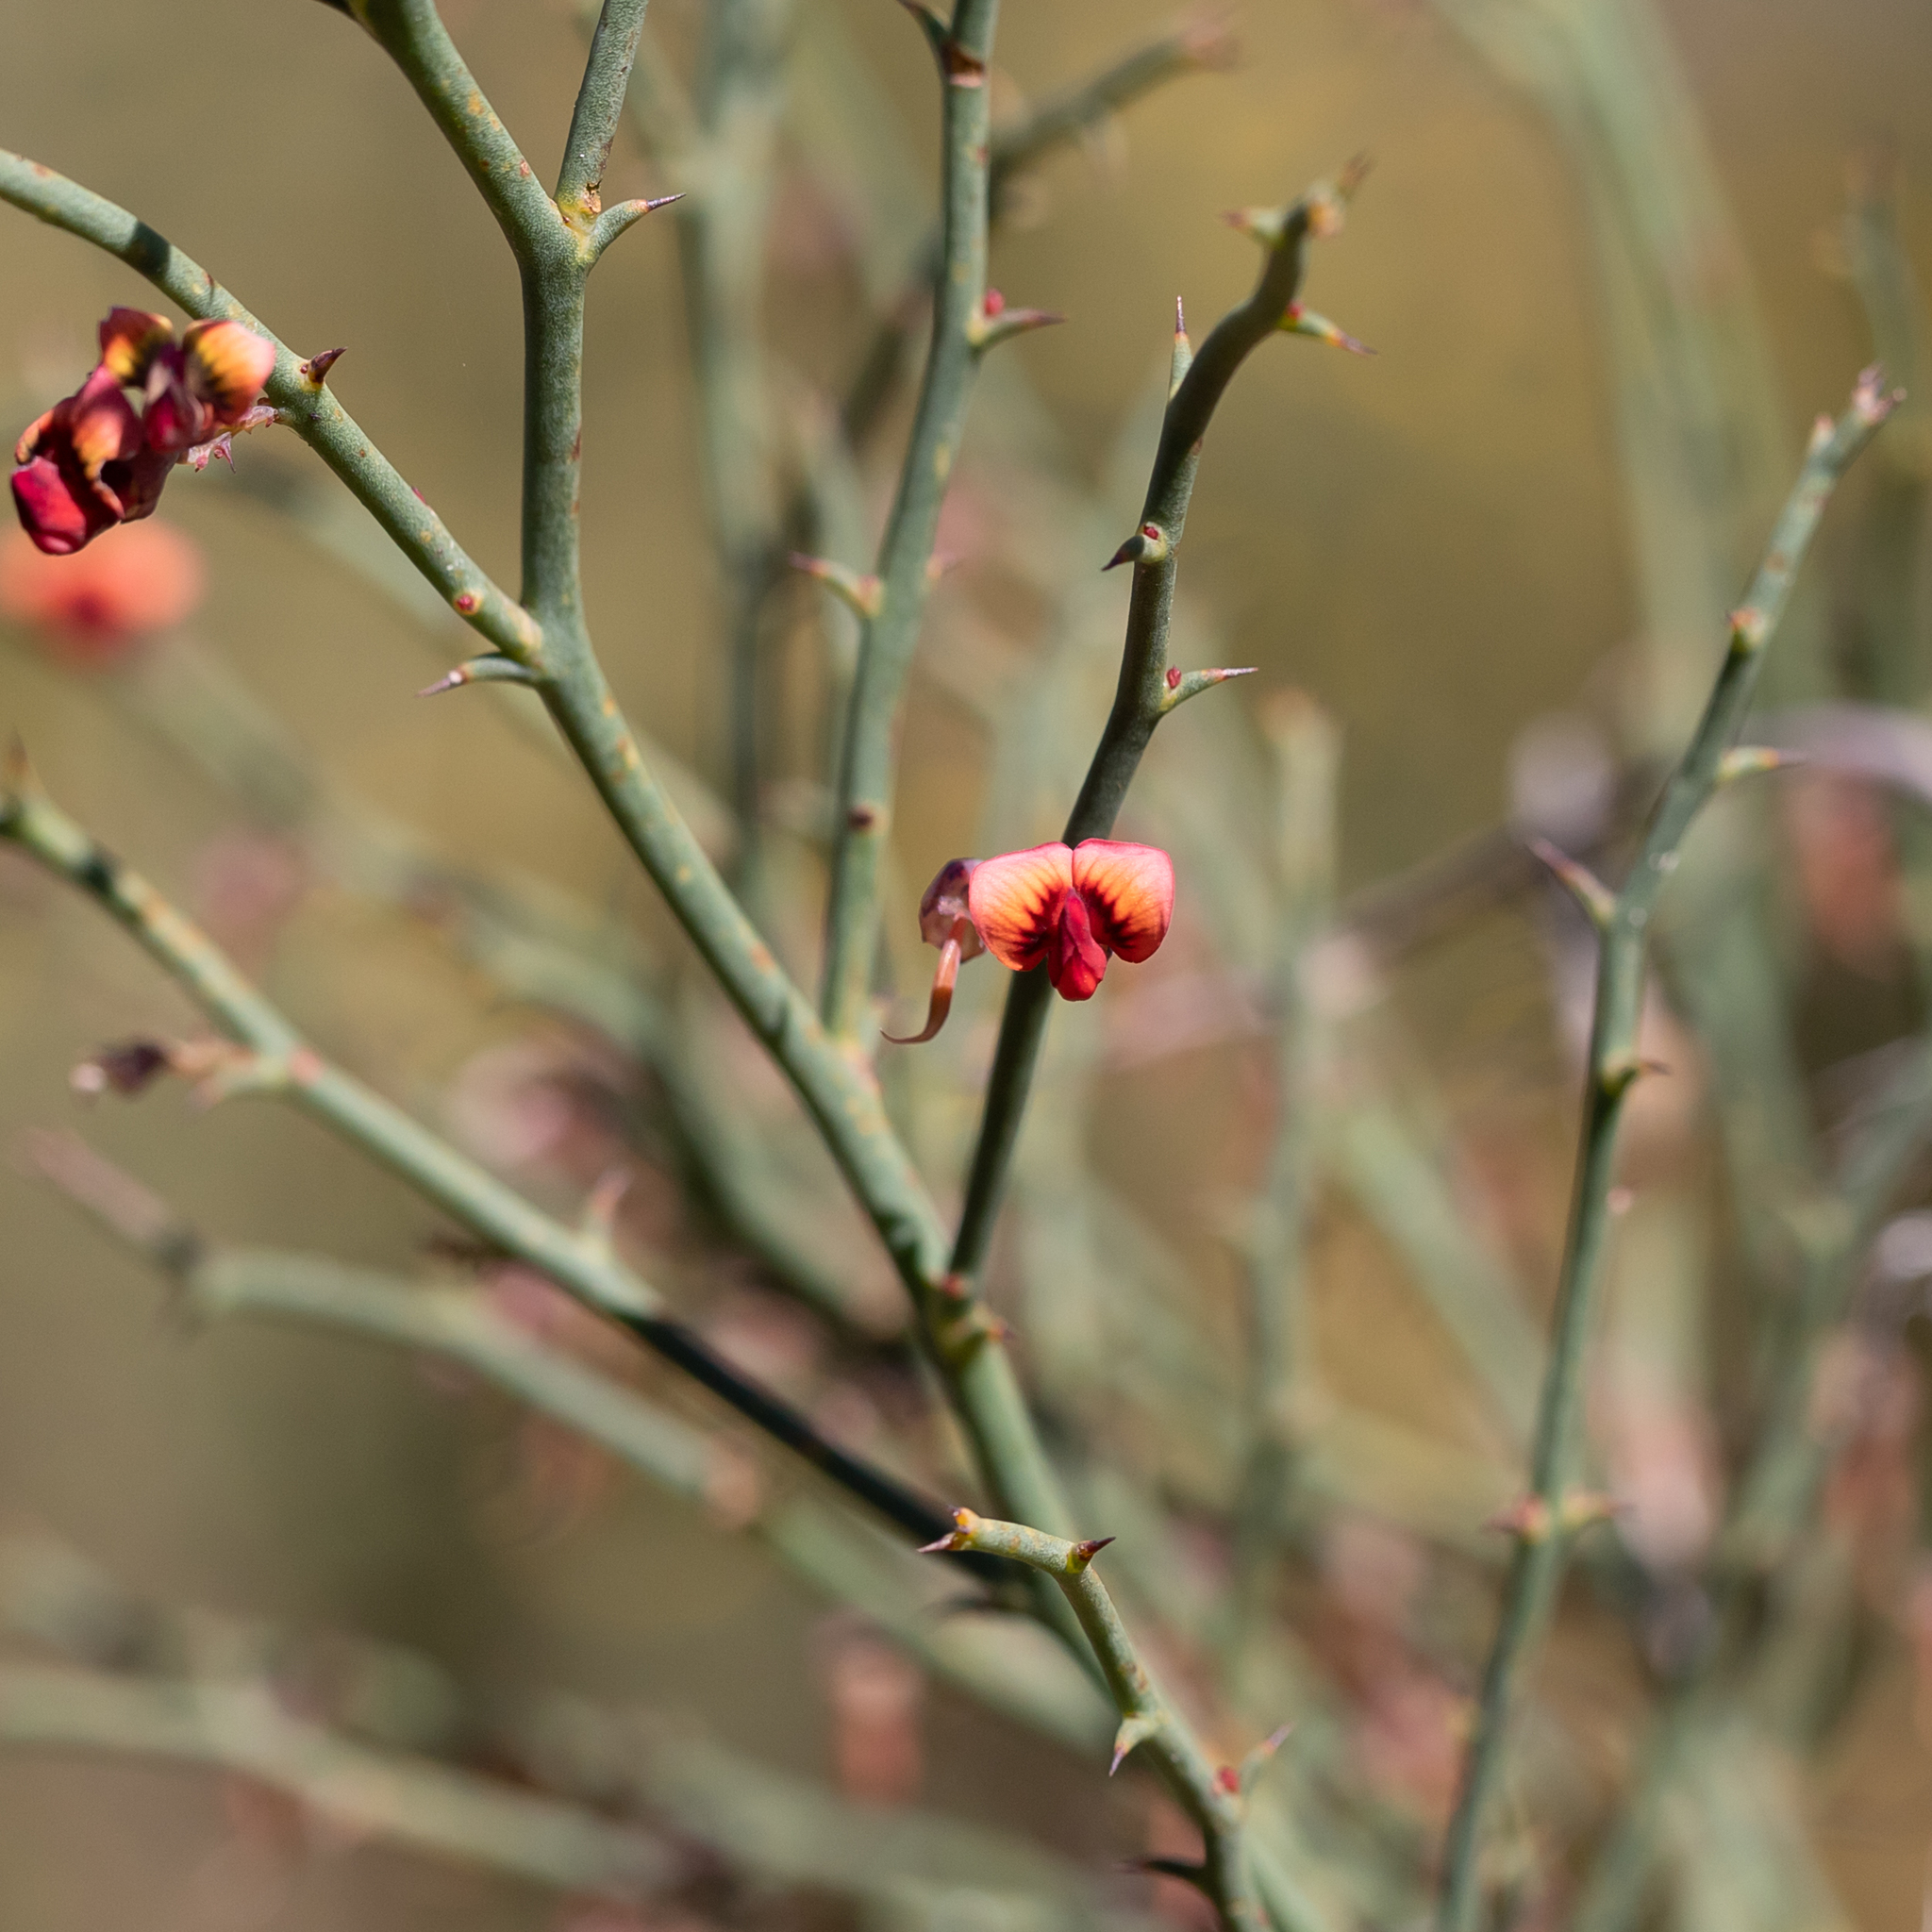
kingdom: Plantae
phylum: Tracheophyta
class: Magnoliopsida
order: Fabales
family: Fabaceae
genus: Daviesia
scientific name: Daviesia brevifolia
